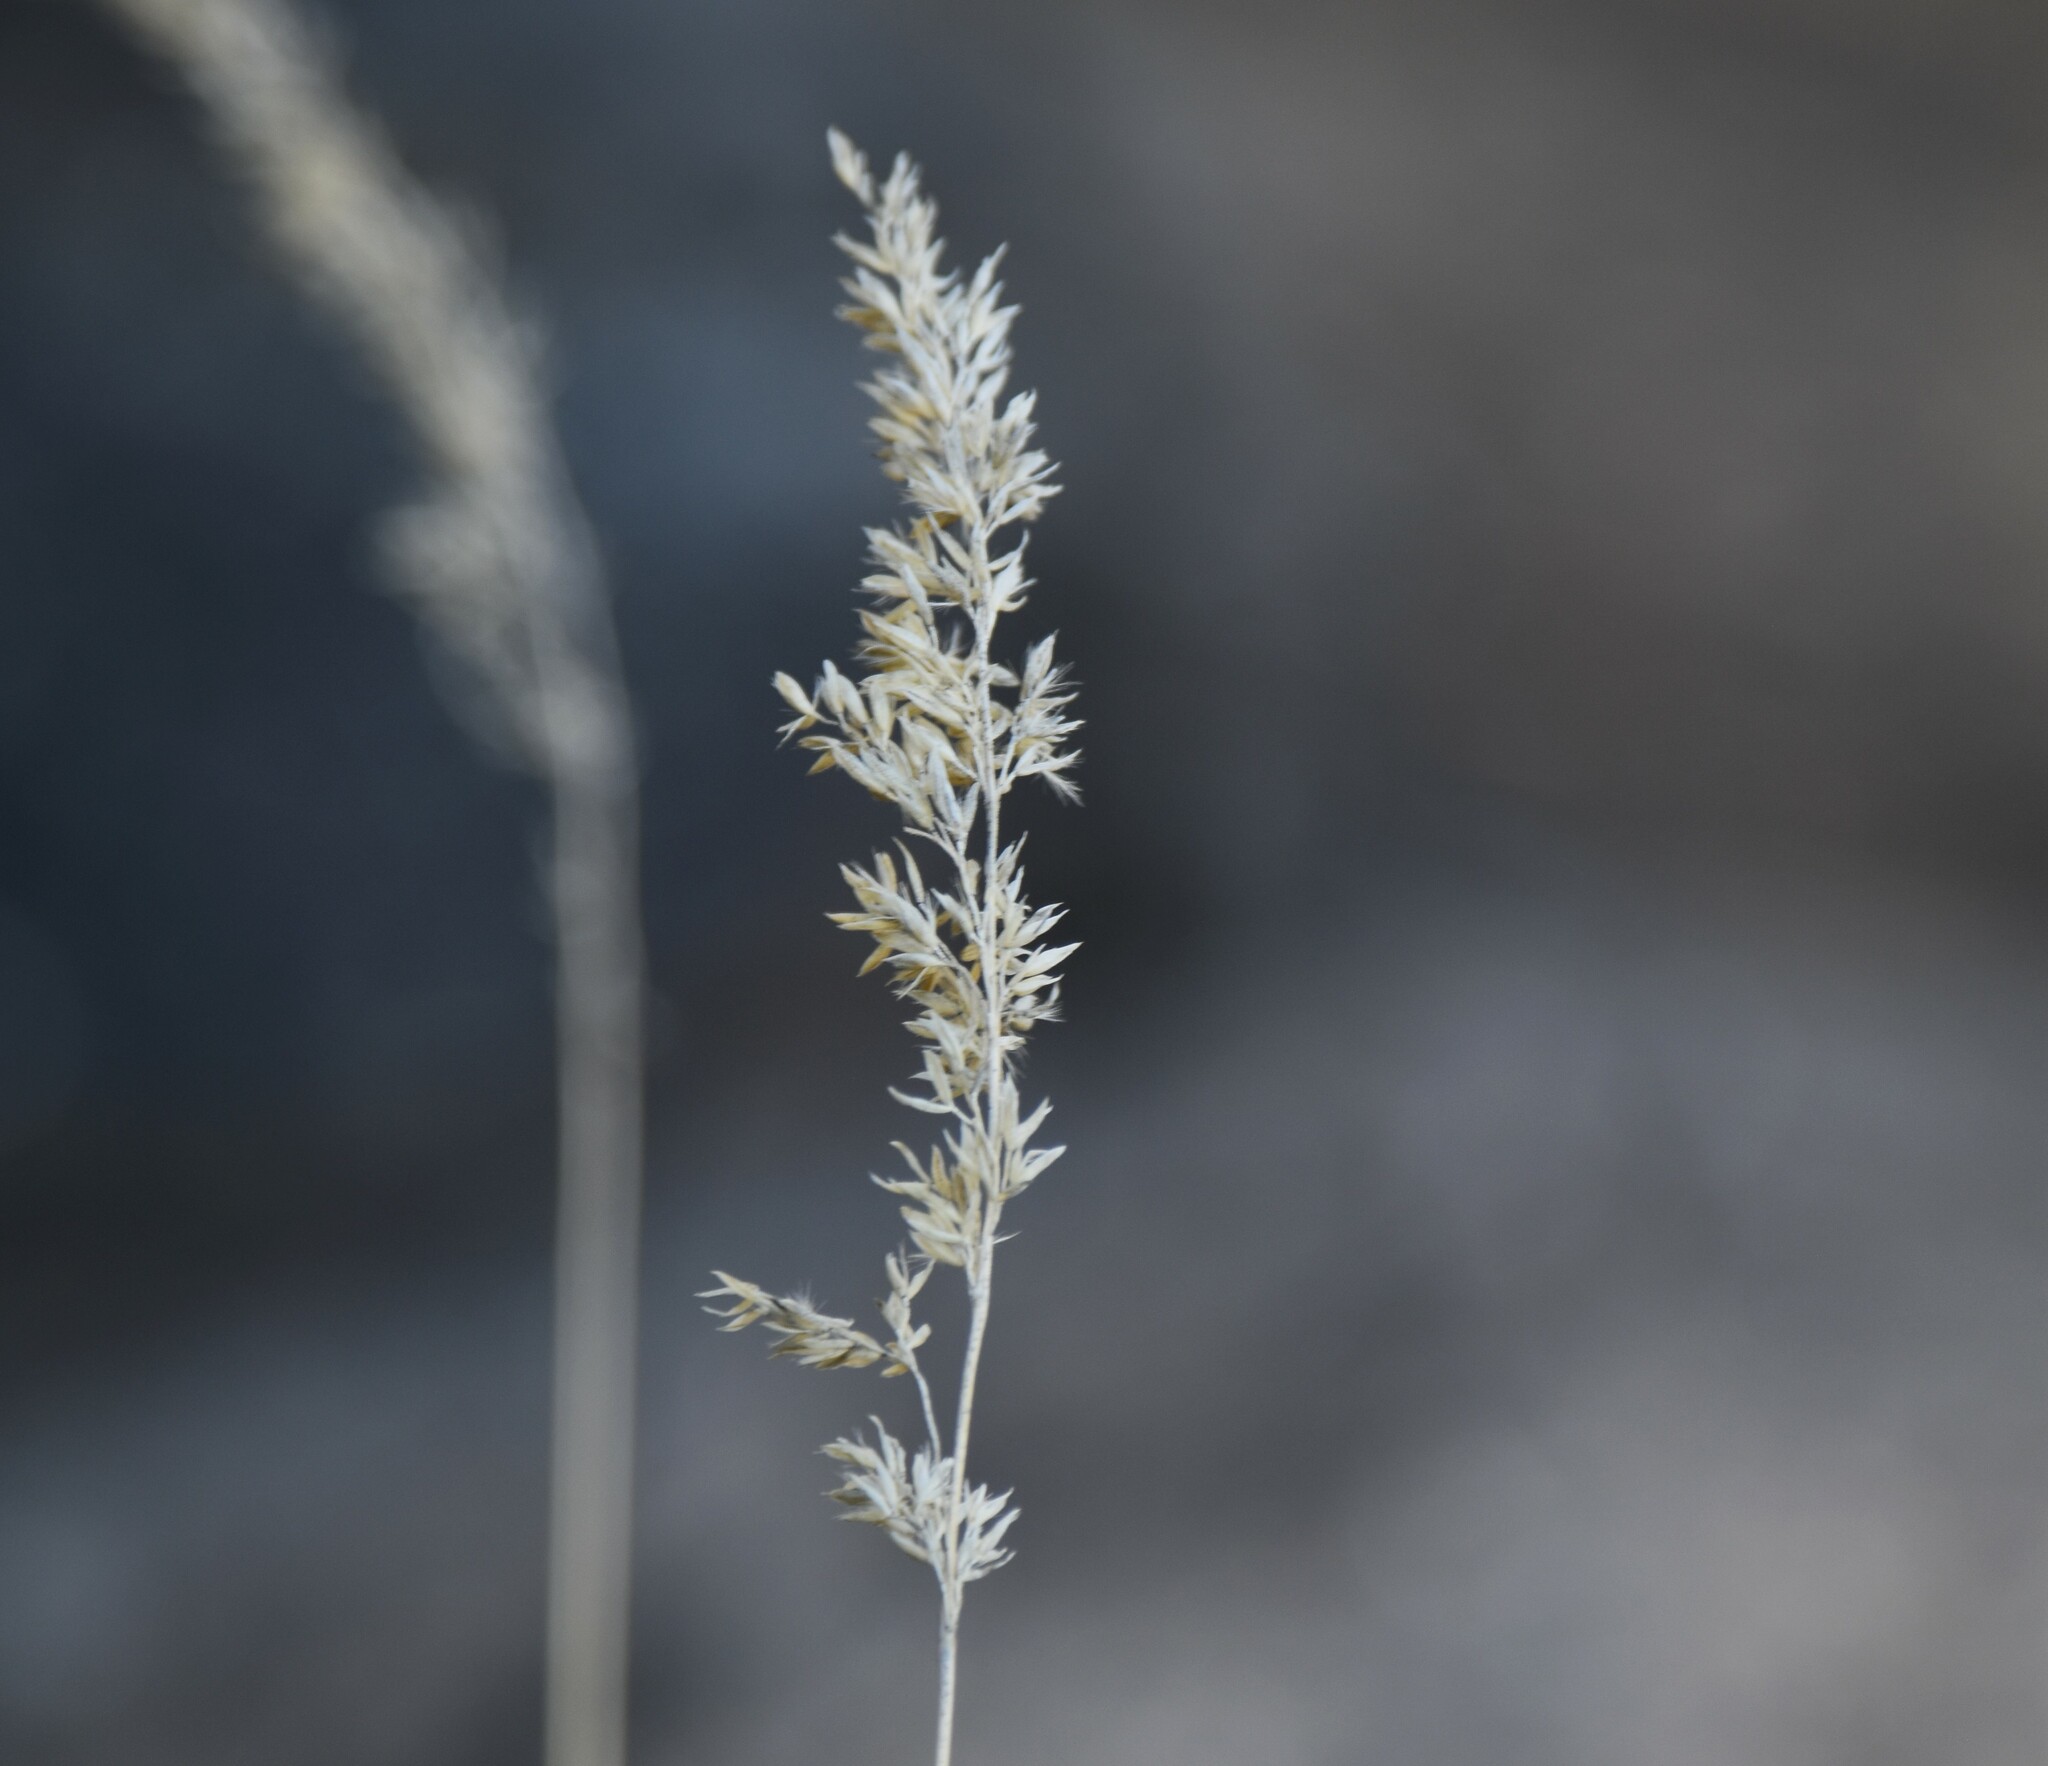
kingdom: Plantae
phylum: Tracheophyta
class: Liliopsida
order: Poales
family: Poaceae
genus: Calamagrostis
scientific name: Calamagrostis stricta
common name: Narrow small-reed
